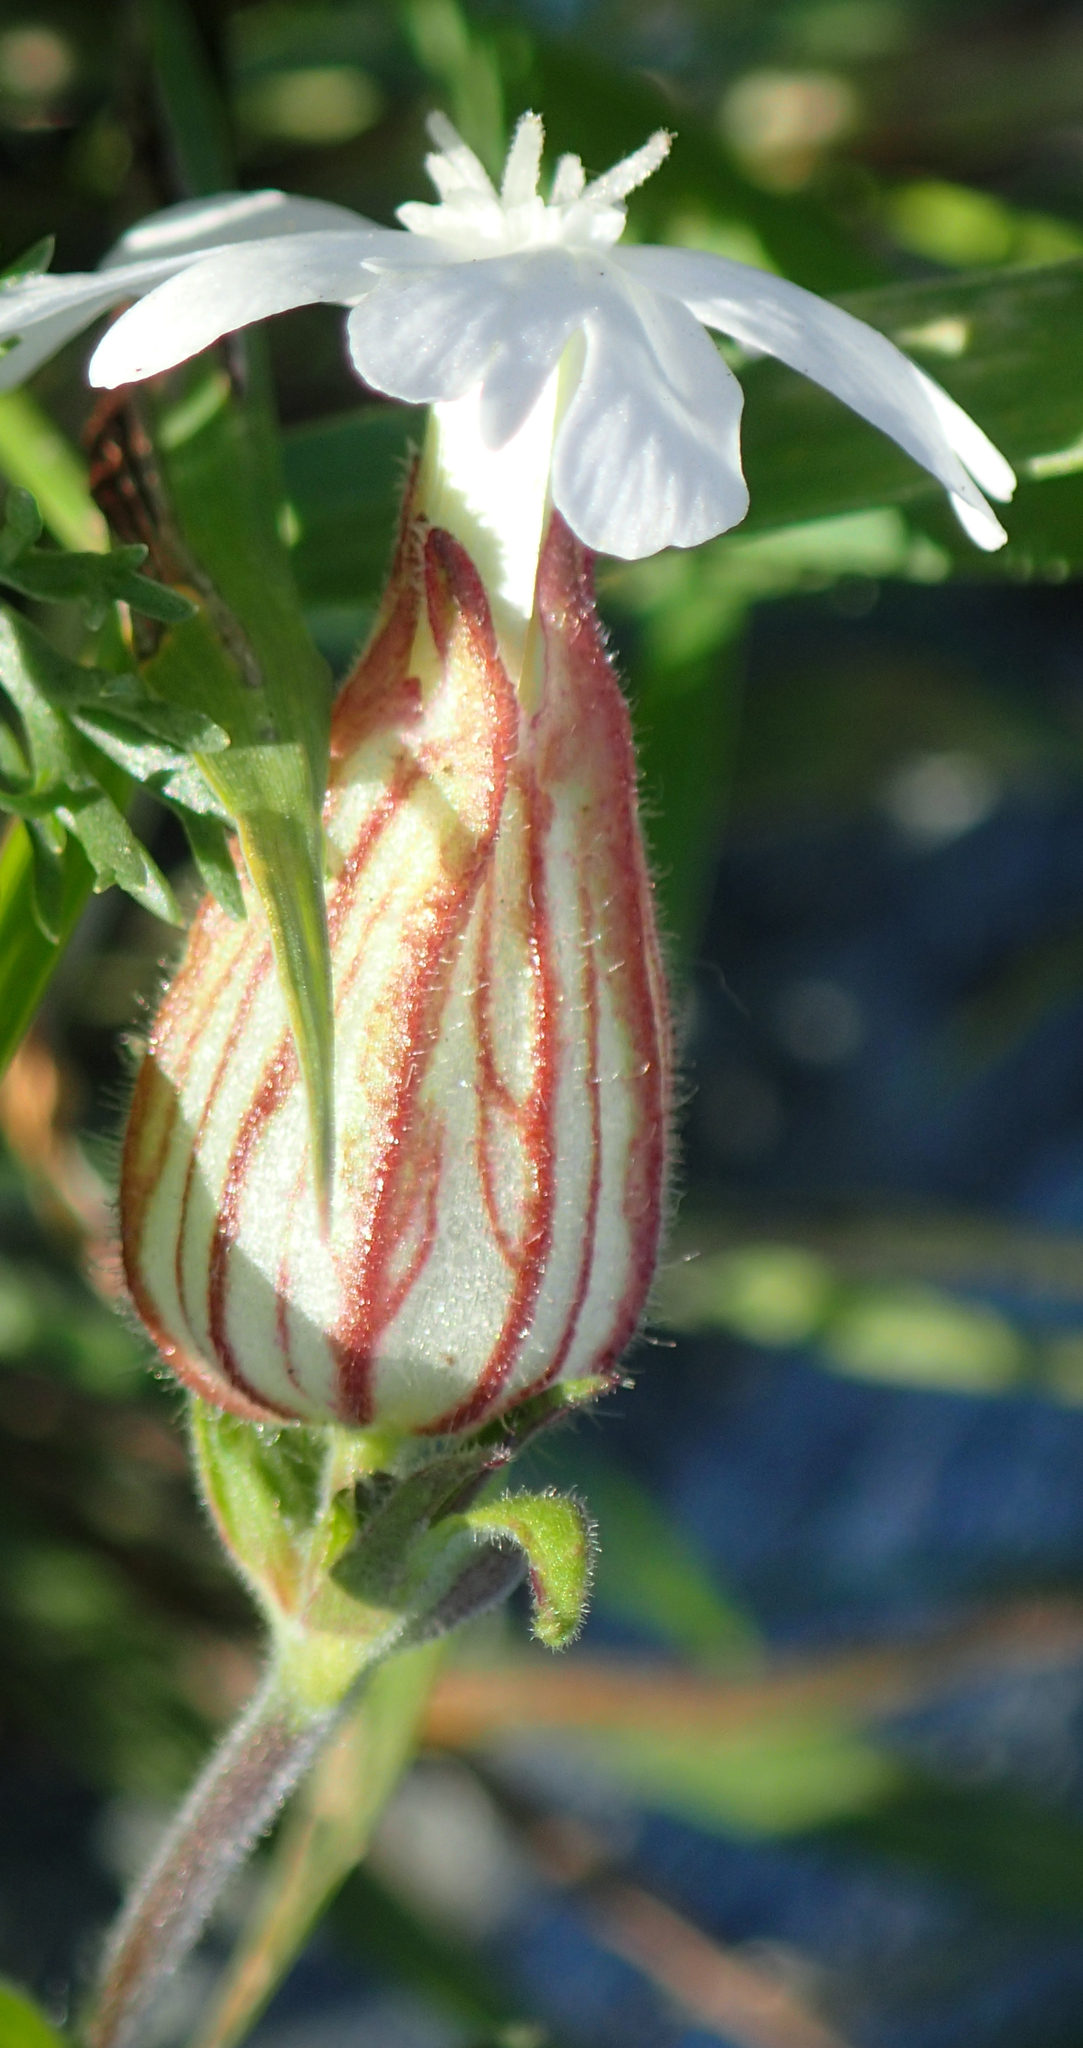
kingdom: Plantae
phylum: Tracheophyta
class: Magnoliopsida
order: Caryophyllales
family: Caryophyllaceae
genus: Silene
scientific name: Silene latifolia
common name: White campion
